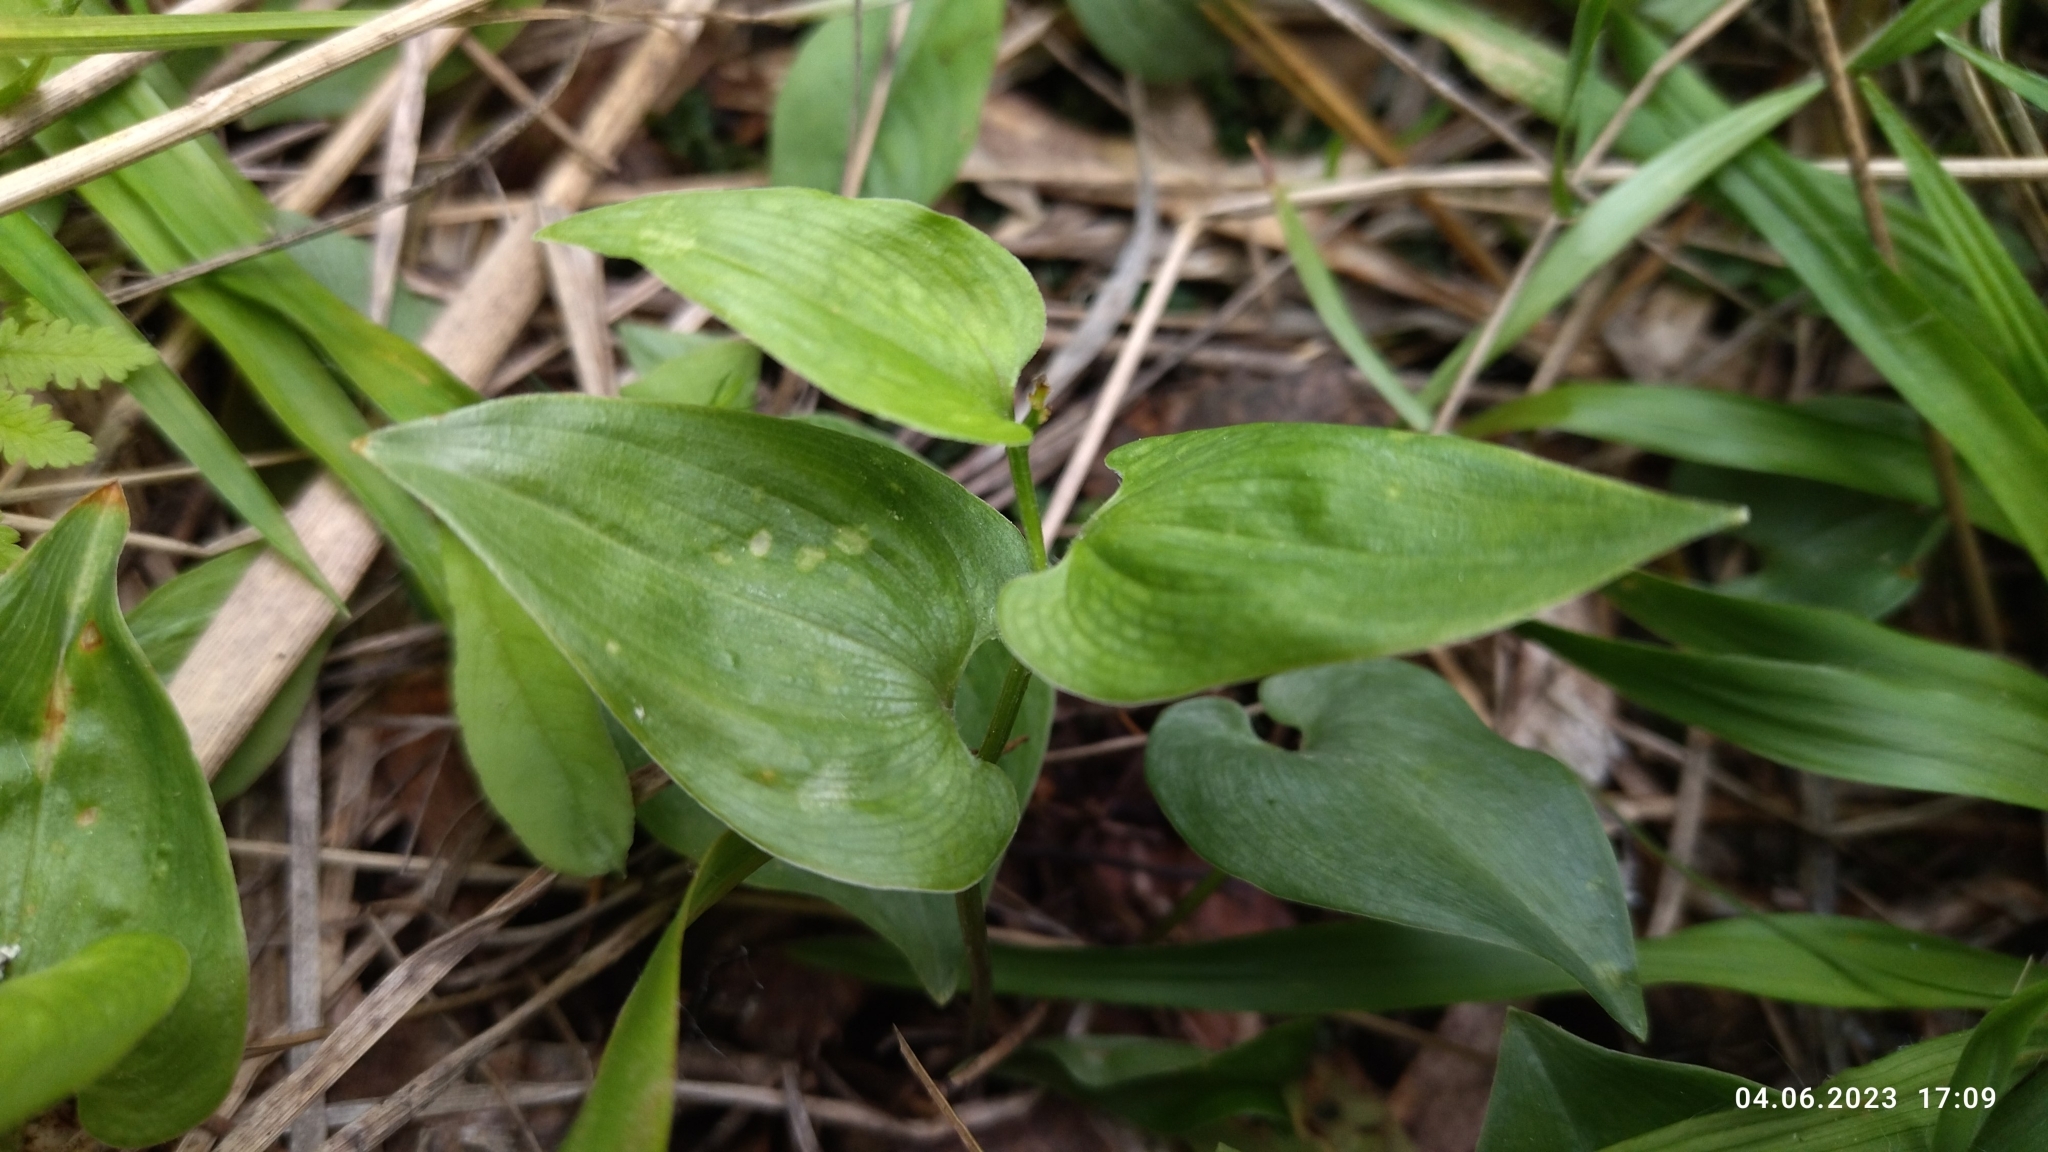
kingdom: Plantae
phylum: Tracheophyta
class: Liliopsida
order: Asparagales
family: Asparagaceae
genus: Maianthemum
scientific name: Maianthemum bifolium
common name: May lily
